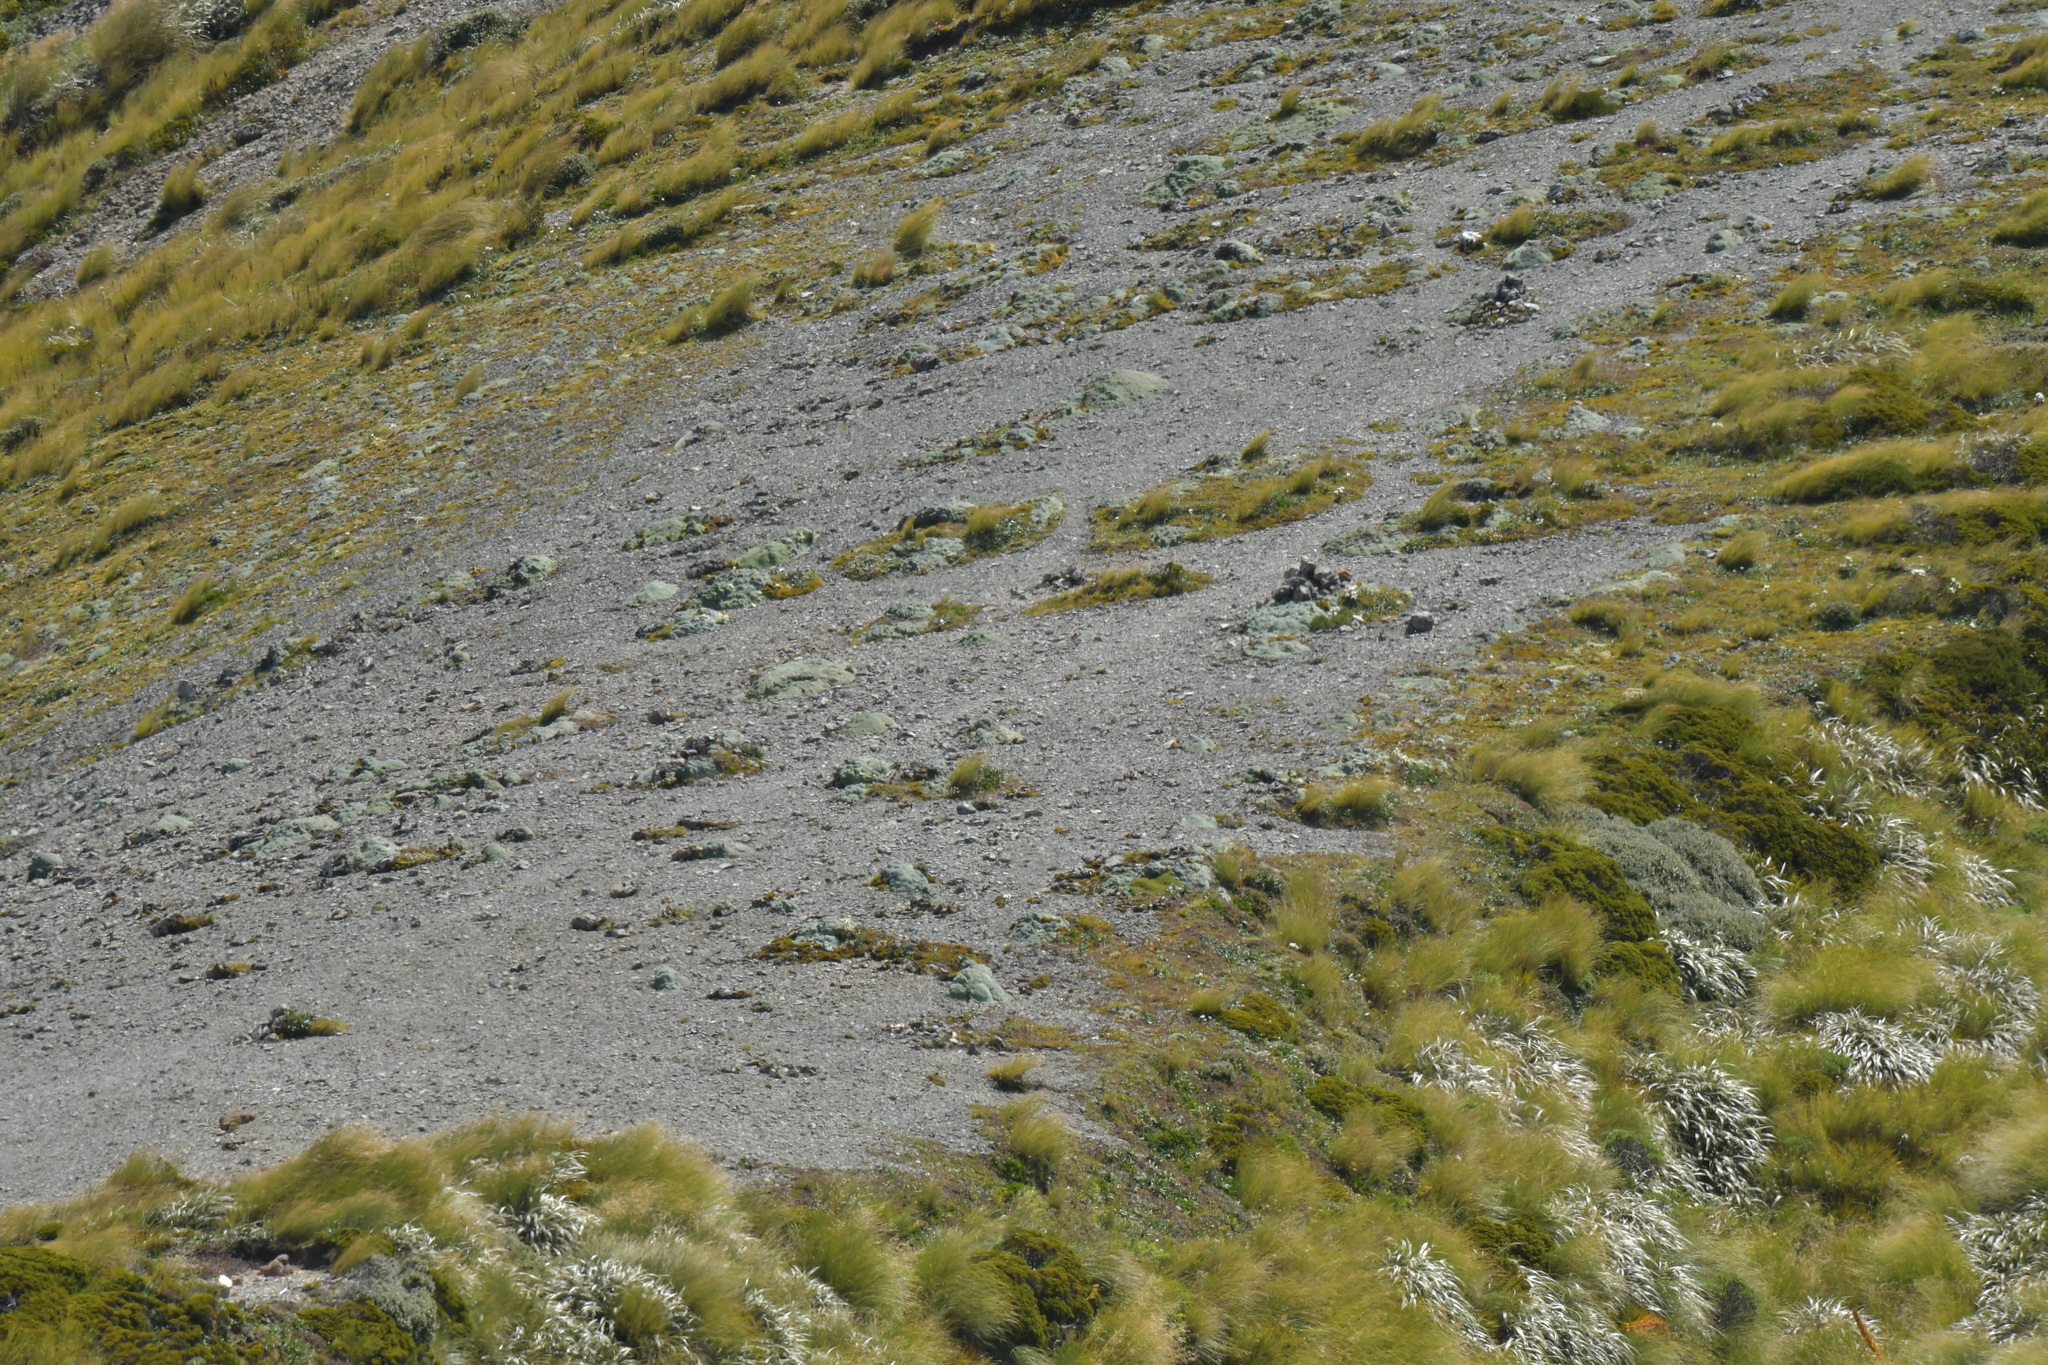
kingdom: Plantae
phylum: Tracheophyta
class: Magnoliopsida
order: Asterales
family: Asteraceae
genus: Raoulia
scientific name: Raoulia rubra
